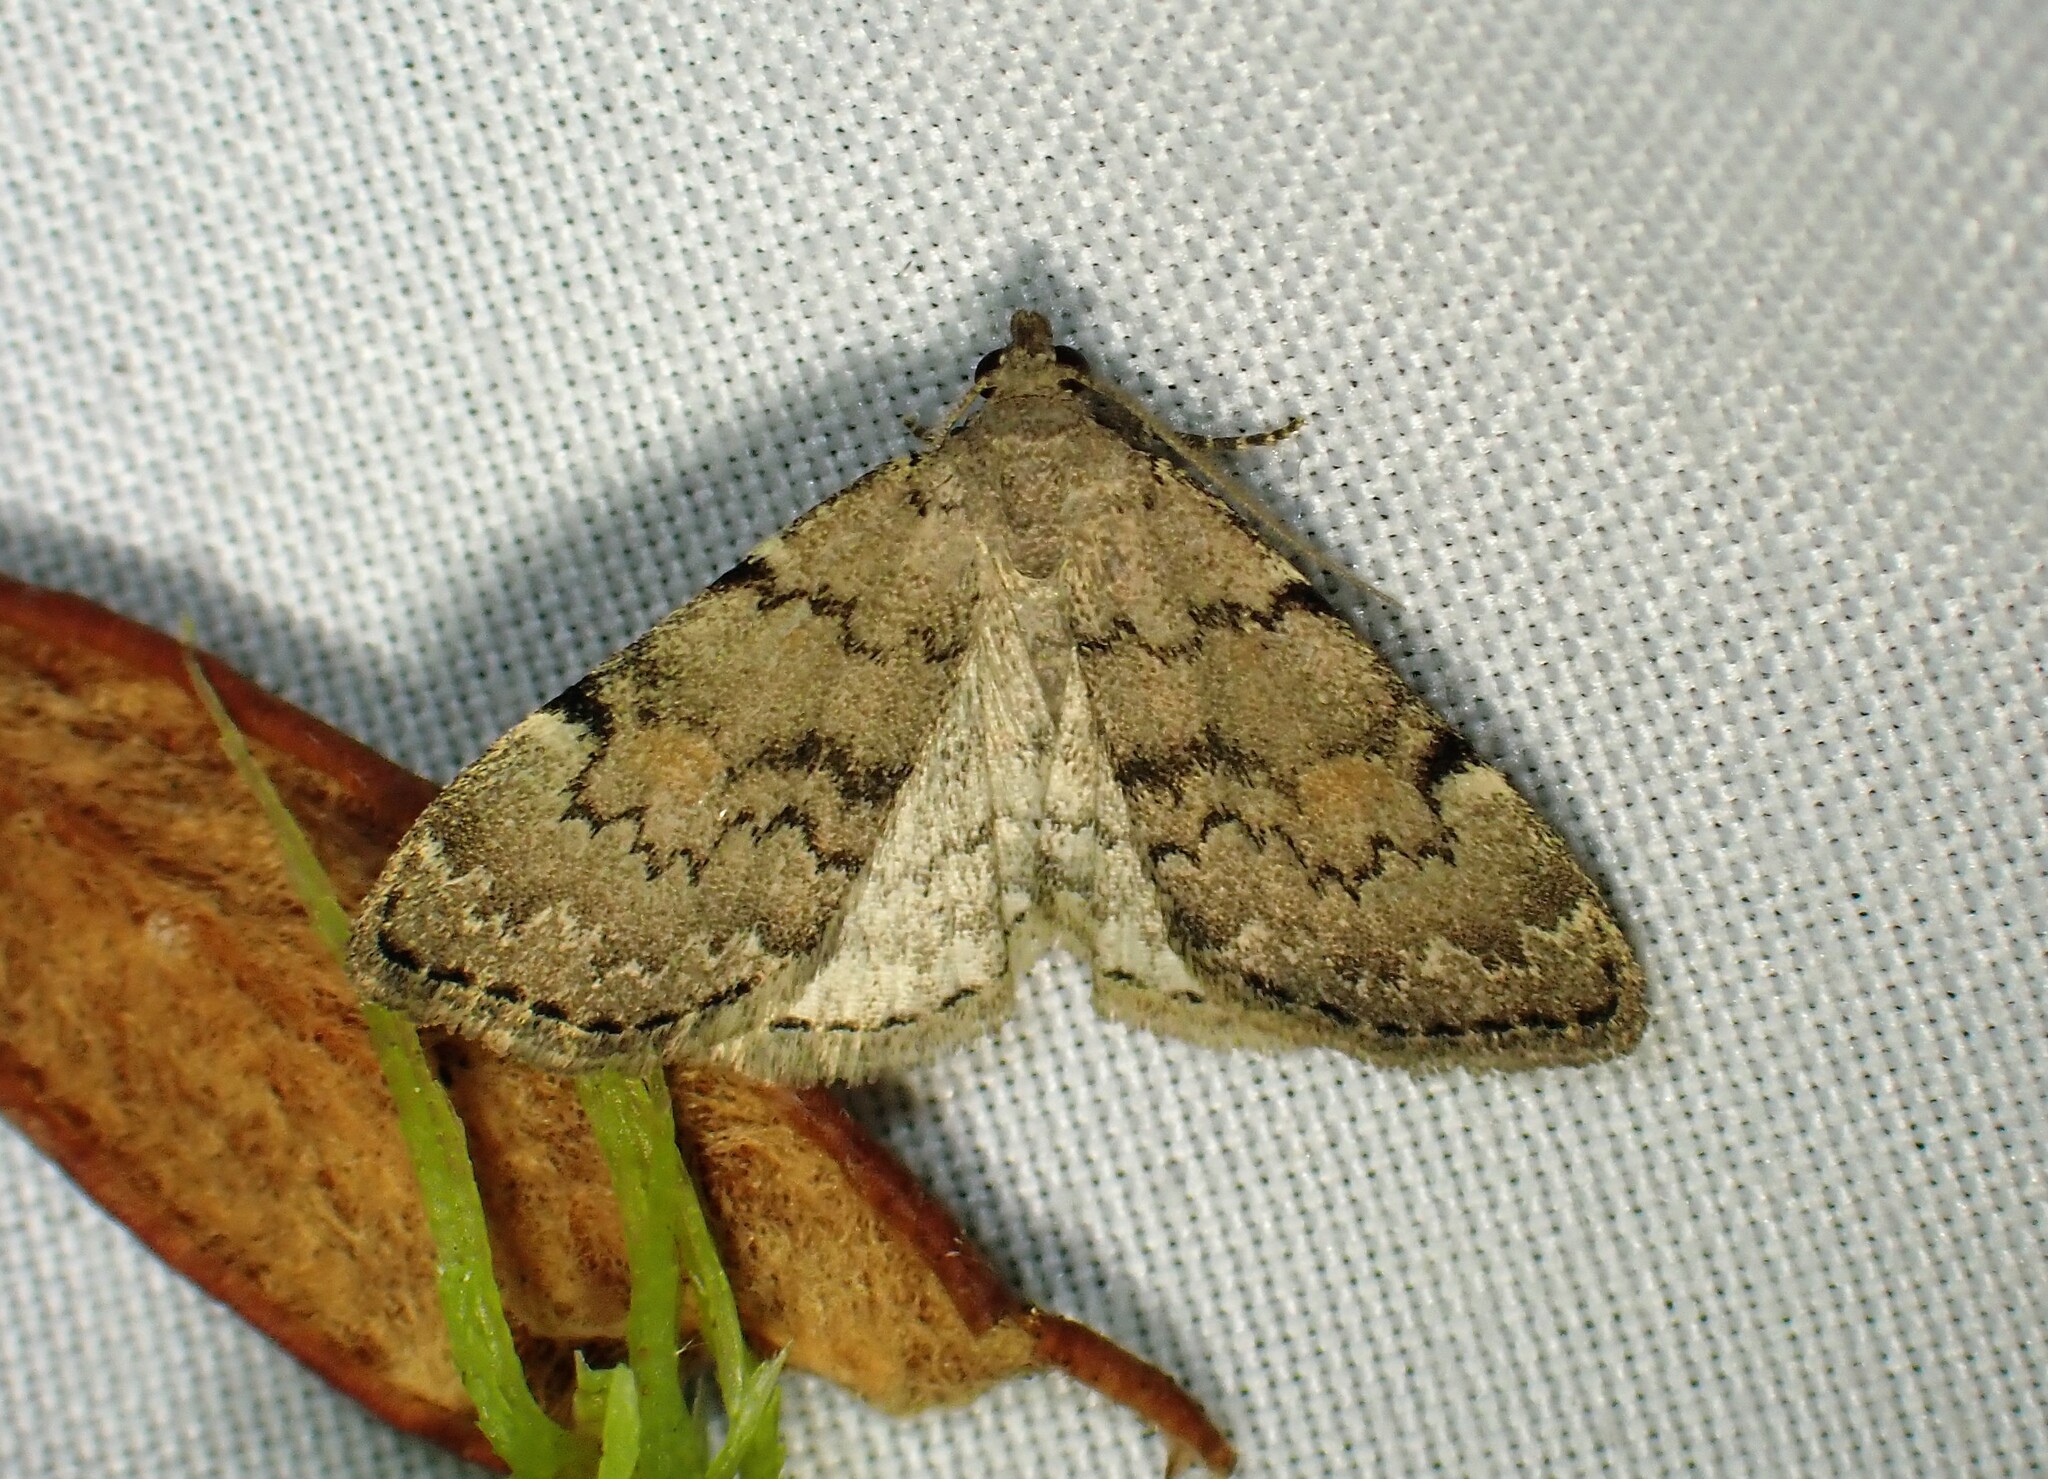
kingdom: Animalia
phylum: Arthropoda
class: Insecta
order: Lepidoptera
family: Erebidae
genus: Idia
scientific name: Idia aemula
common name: Common idia moth
